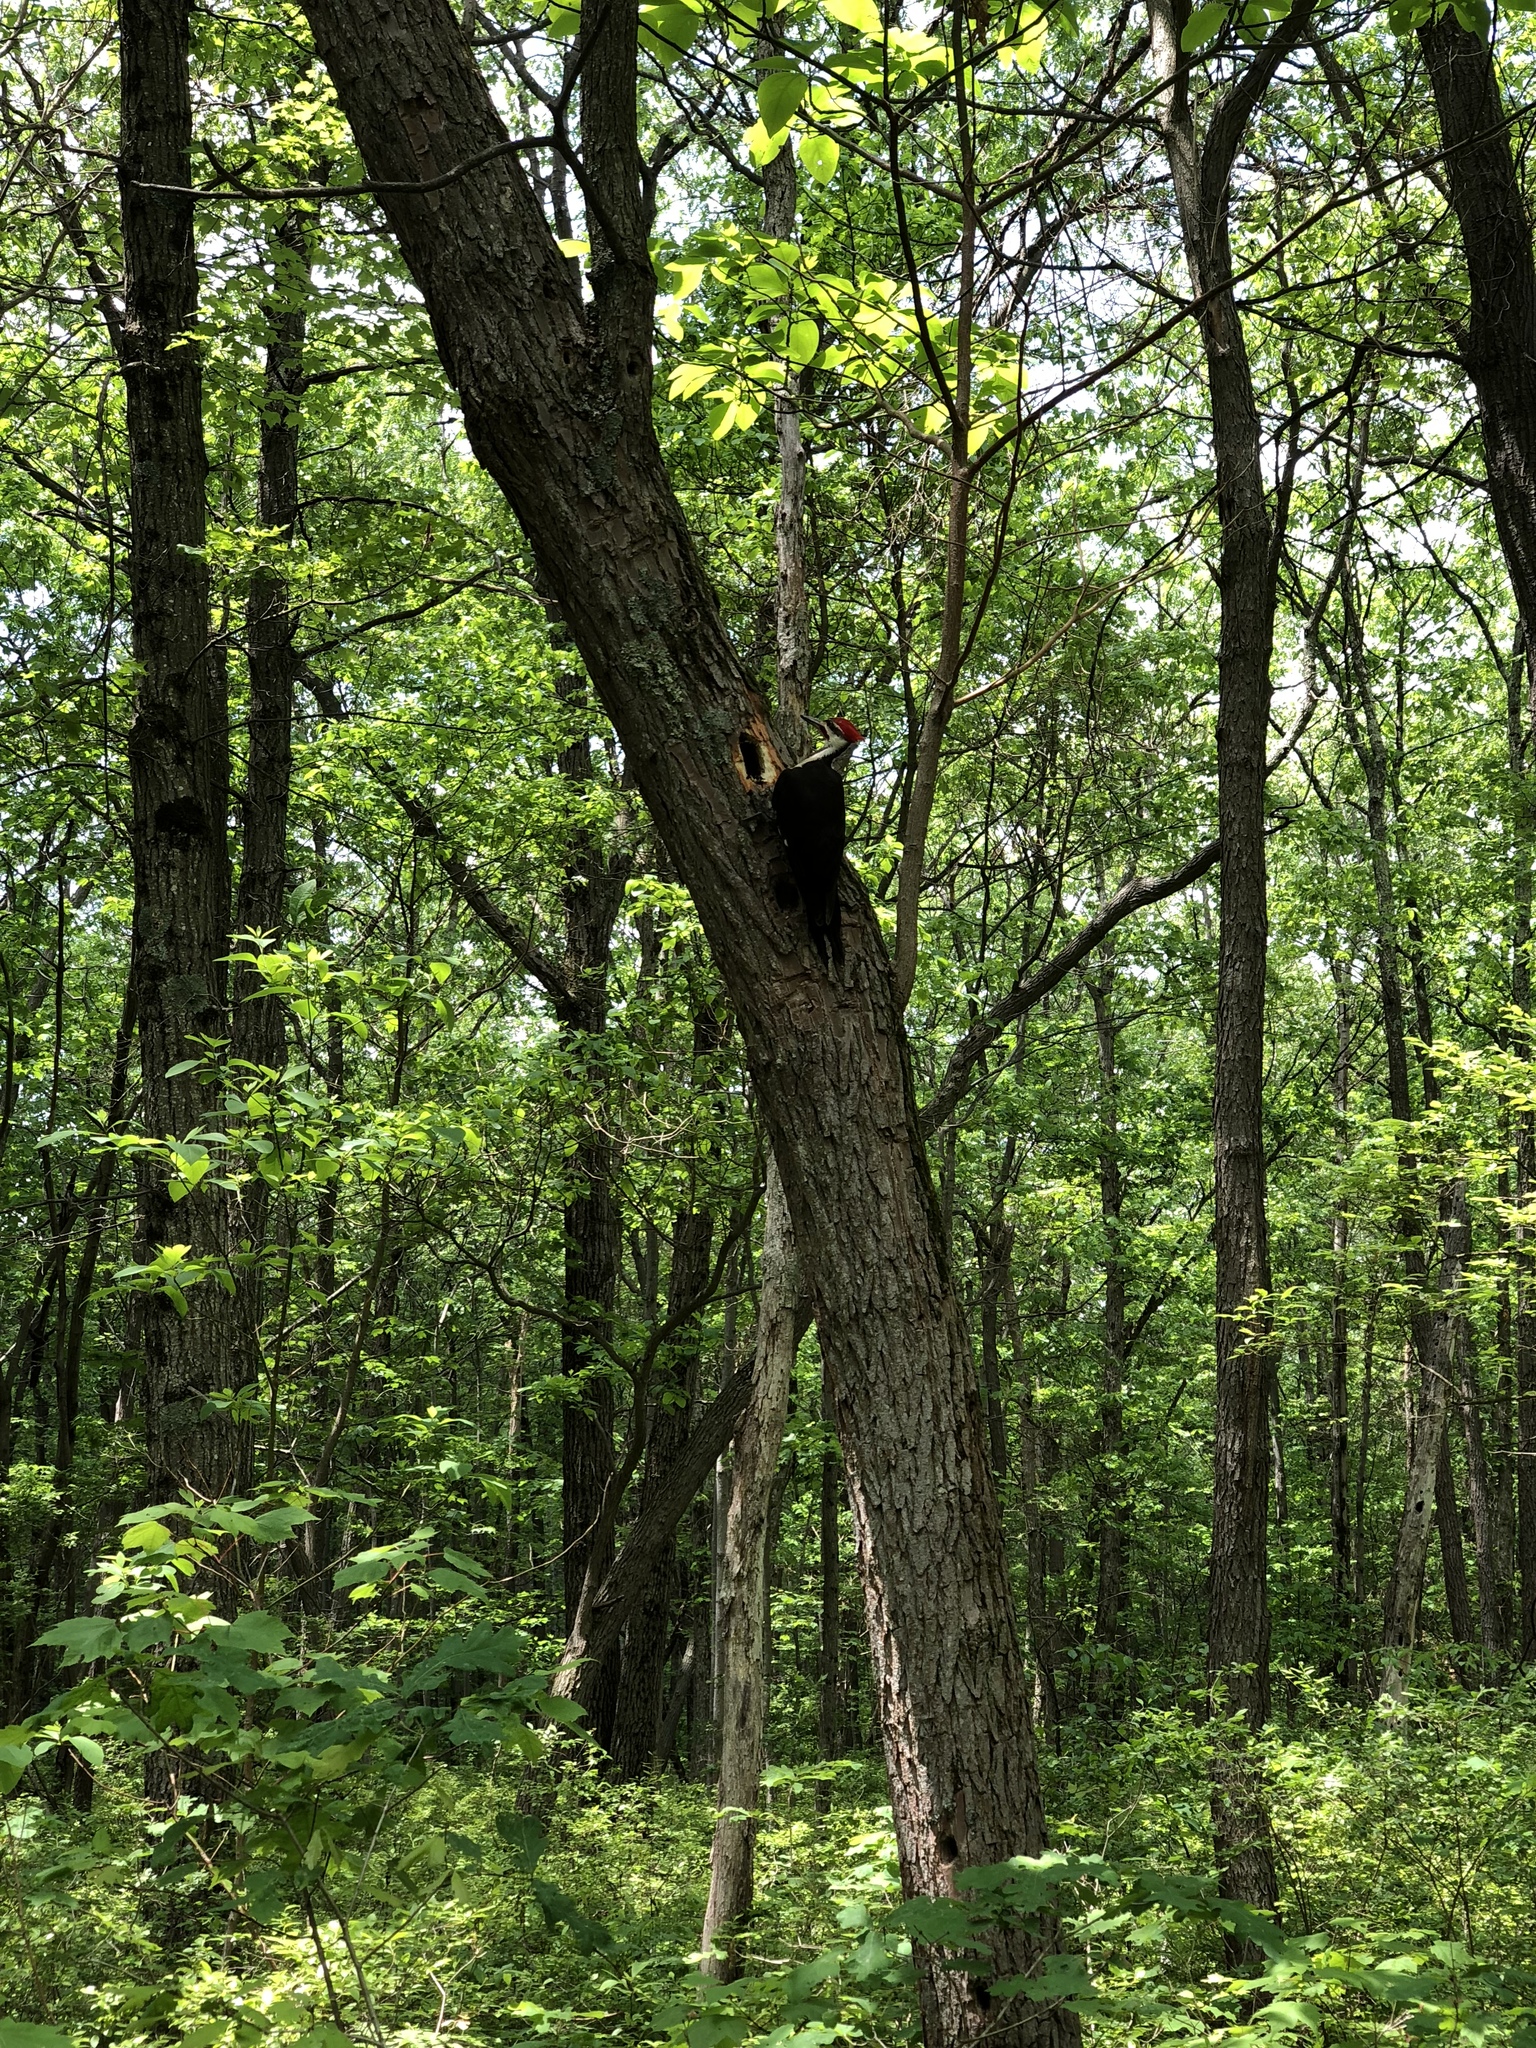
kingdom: Animalia
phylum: Chordata
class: Aves
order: Piciformes
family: Picidae
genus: Dryocopus
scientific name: Dryocopus pileatus
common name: Pileated woodpecker
